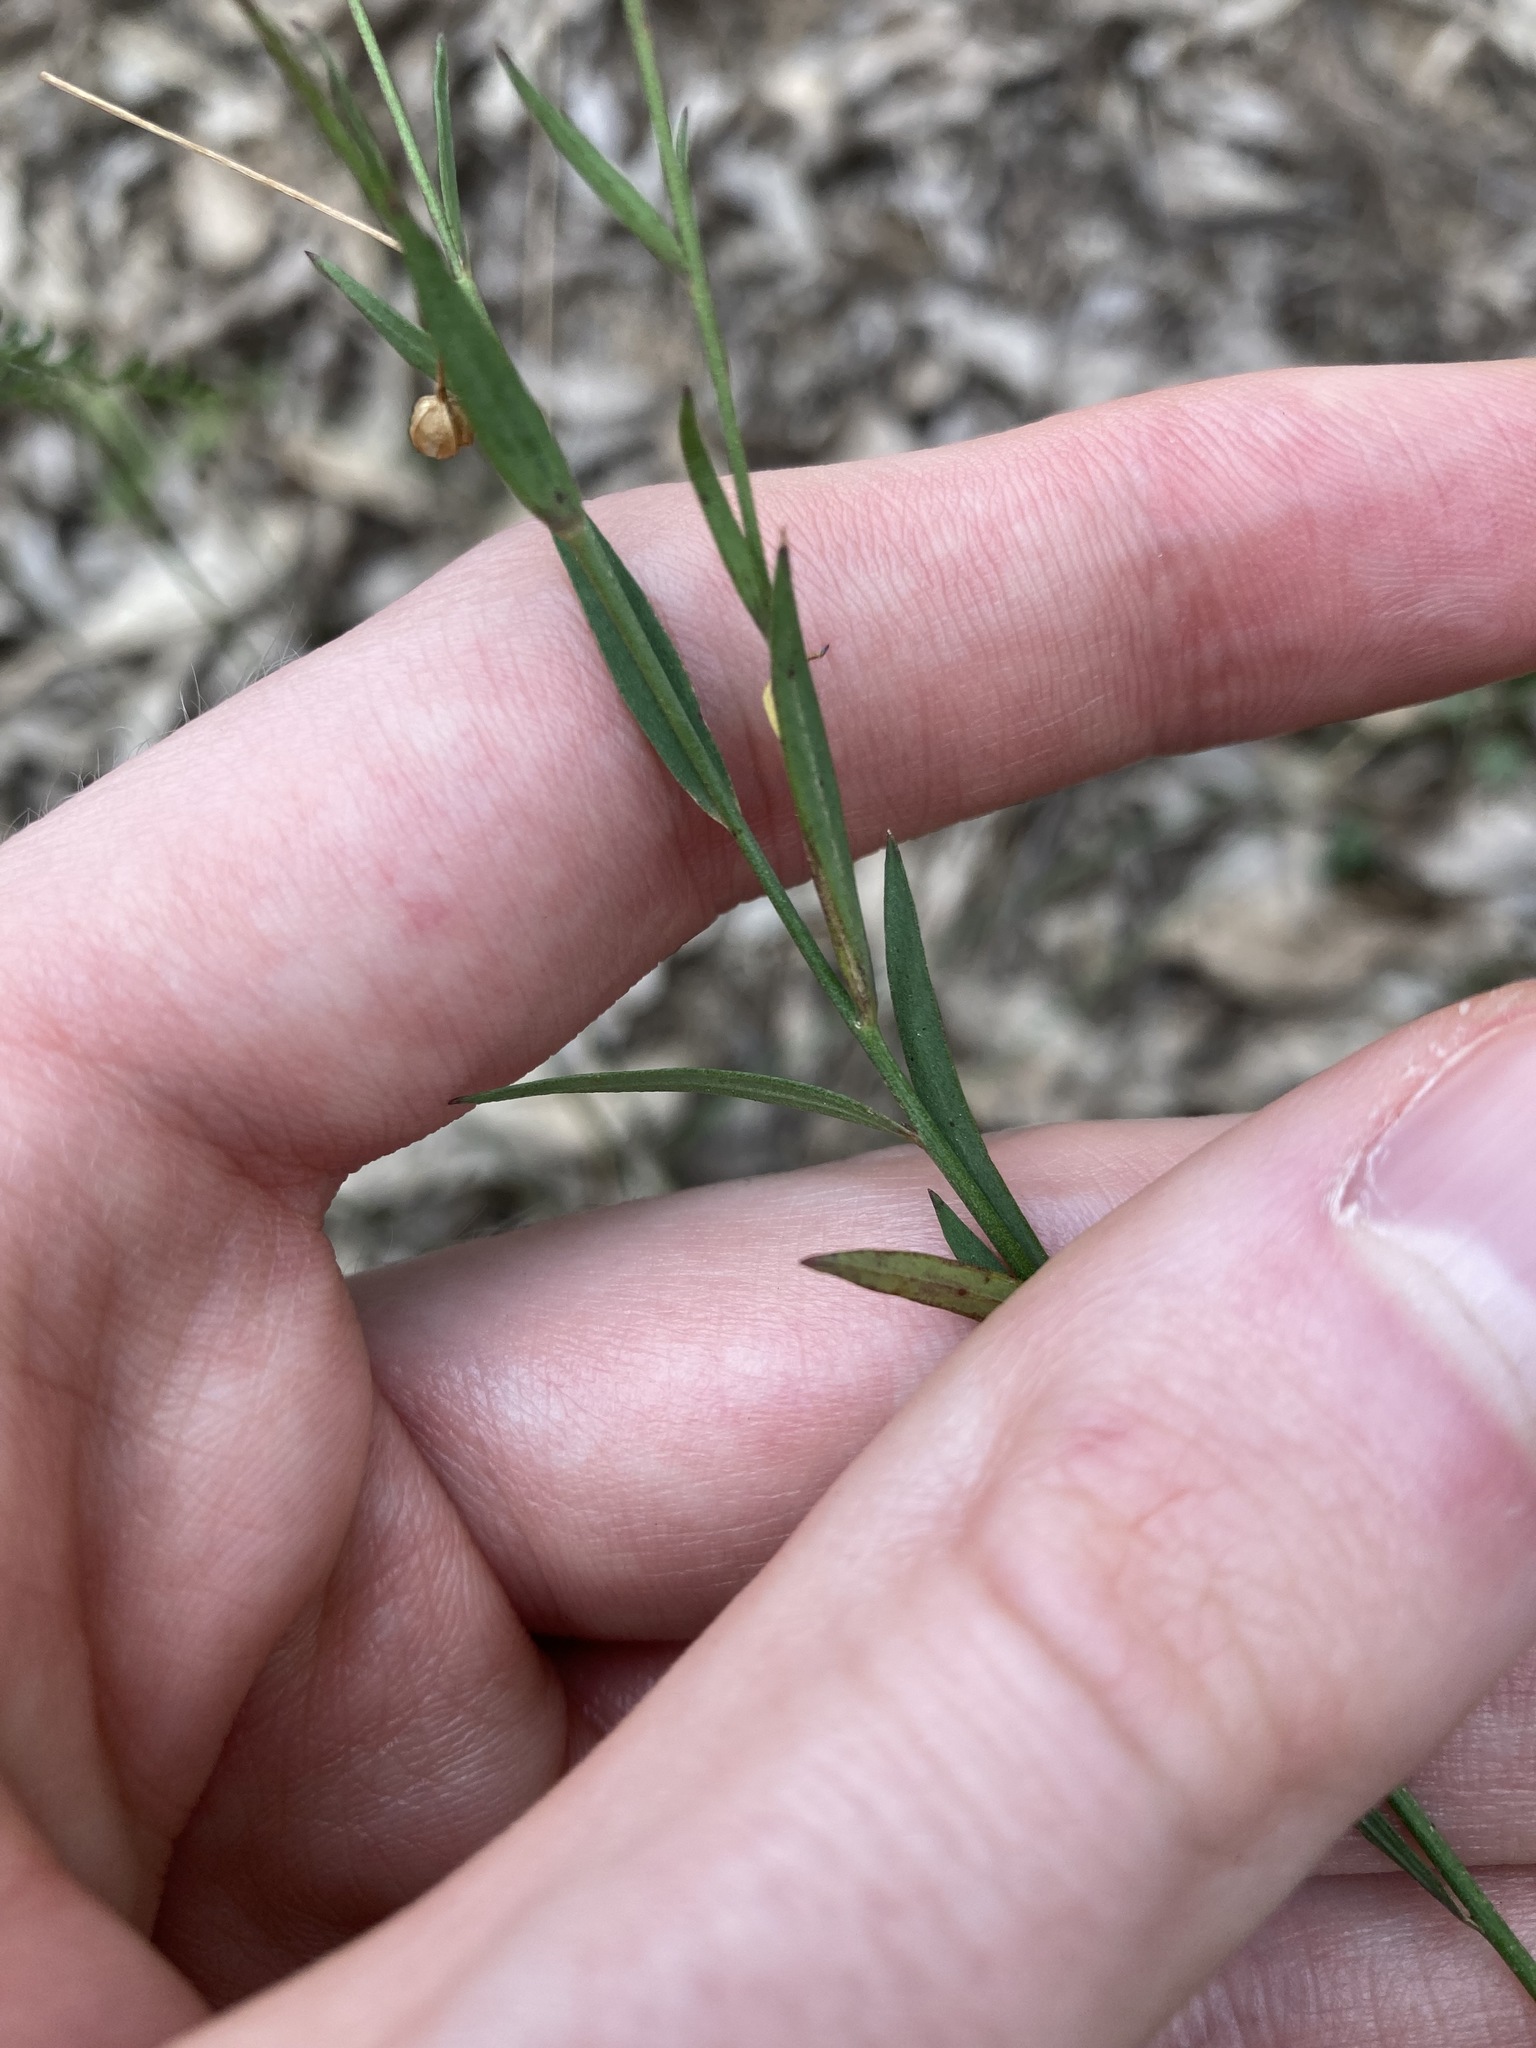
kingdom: Plantae
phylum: Tracheophyta
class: Magnoliopsida
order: Malpighiales
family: Linaceae
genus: Linum
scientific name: Linum marginale
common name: Wild flax
